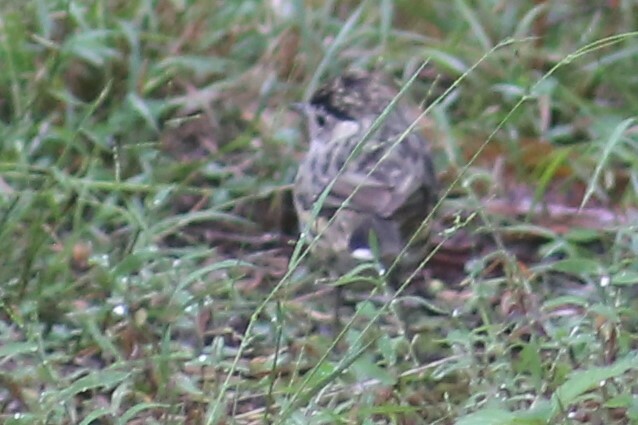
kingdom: Animalia
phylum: Chordata
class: Aves
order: Passeriformes
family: Acanthizidae
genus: Pyrrholaemus
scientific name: Pyrrholaemus sagittatus
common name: Speckled warbler
